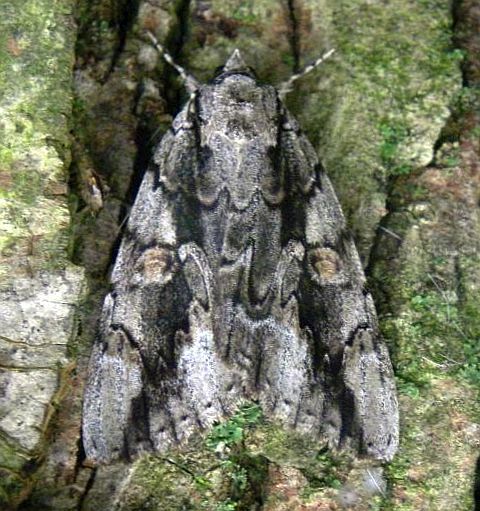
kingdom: Animalia
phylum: Arthropoda
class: Insecta
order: Lepidoptera
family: Erebidae
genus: Catocala
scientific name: Catocala flebilis
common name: Mournful underwing
